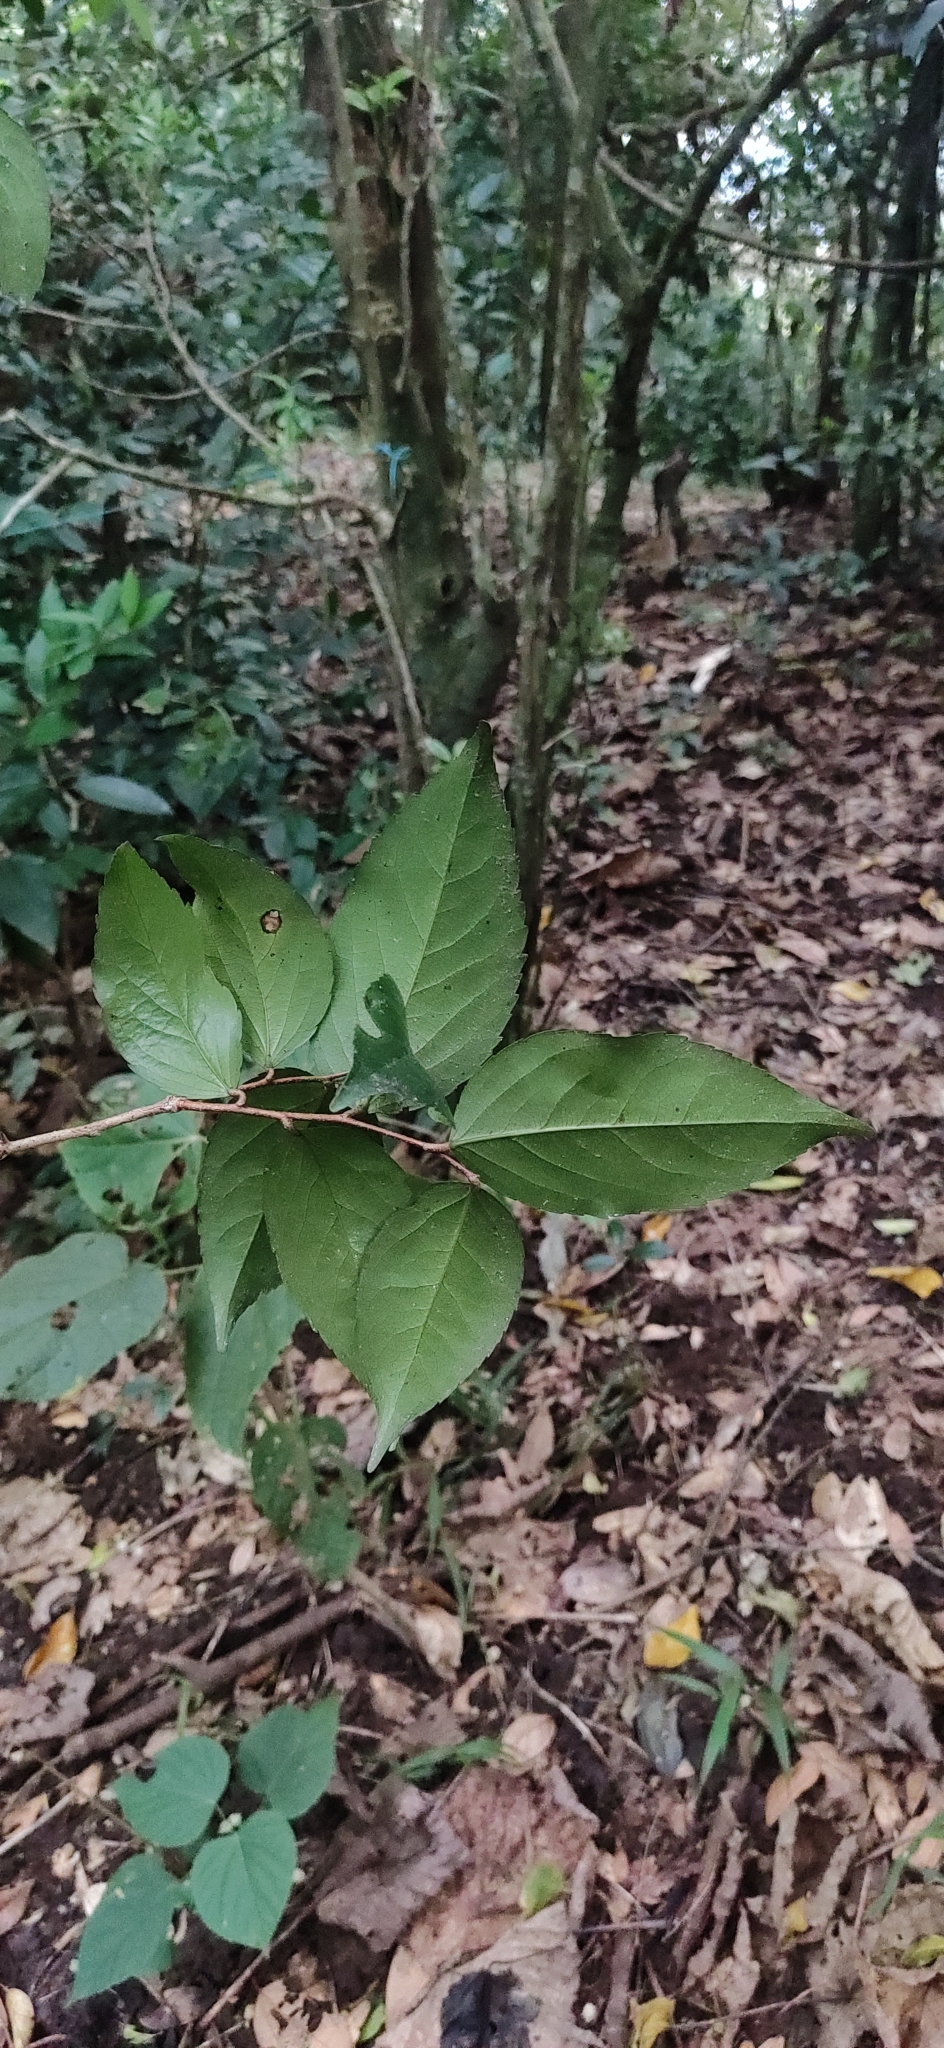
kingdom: Plantae
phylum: Tracheophyta
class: Magnoliopsida
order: Malpighiales
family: Salicaceae
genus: Flacourtia
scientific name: Flacourtia montana
